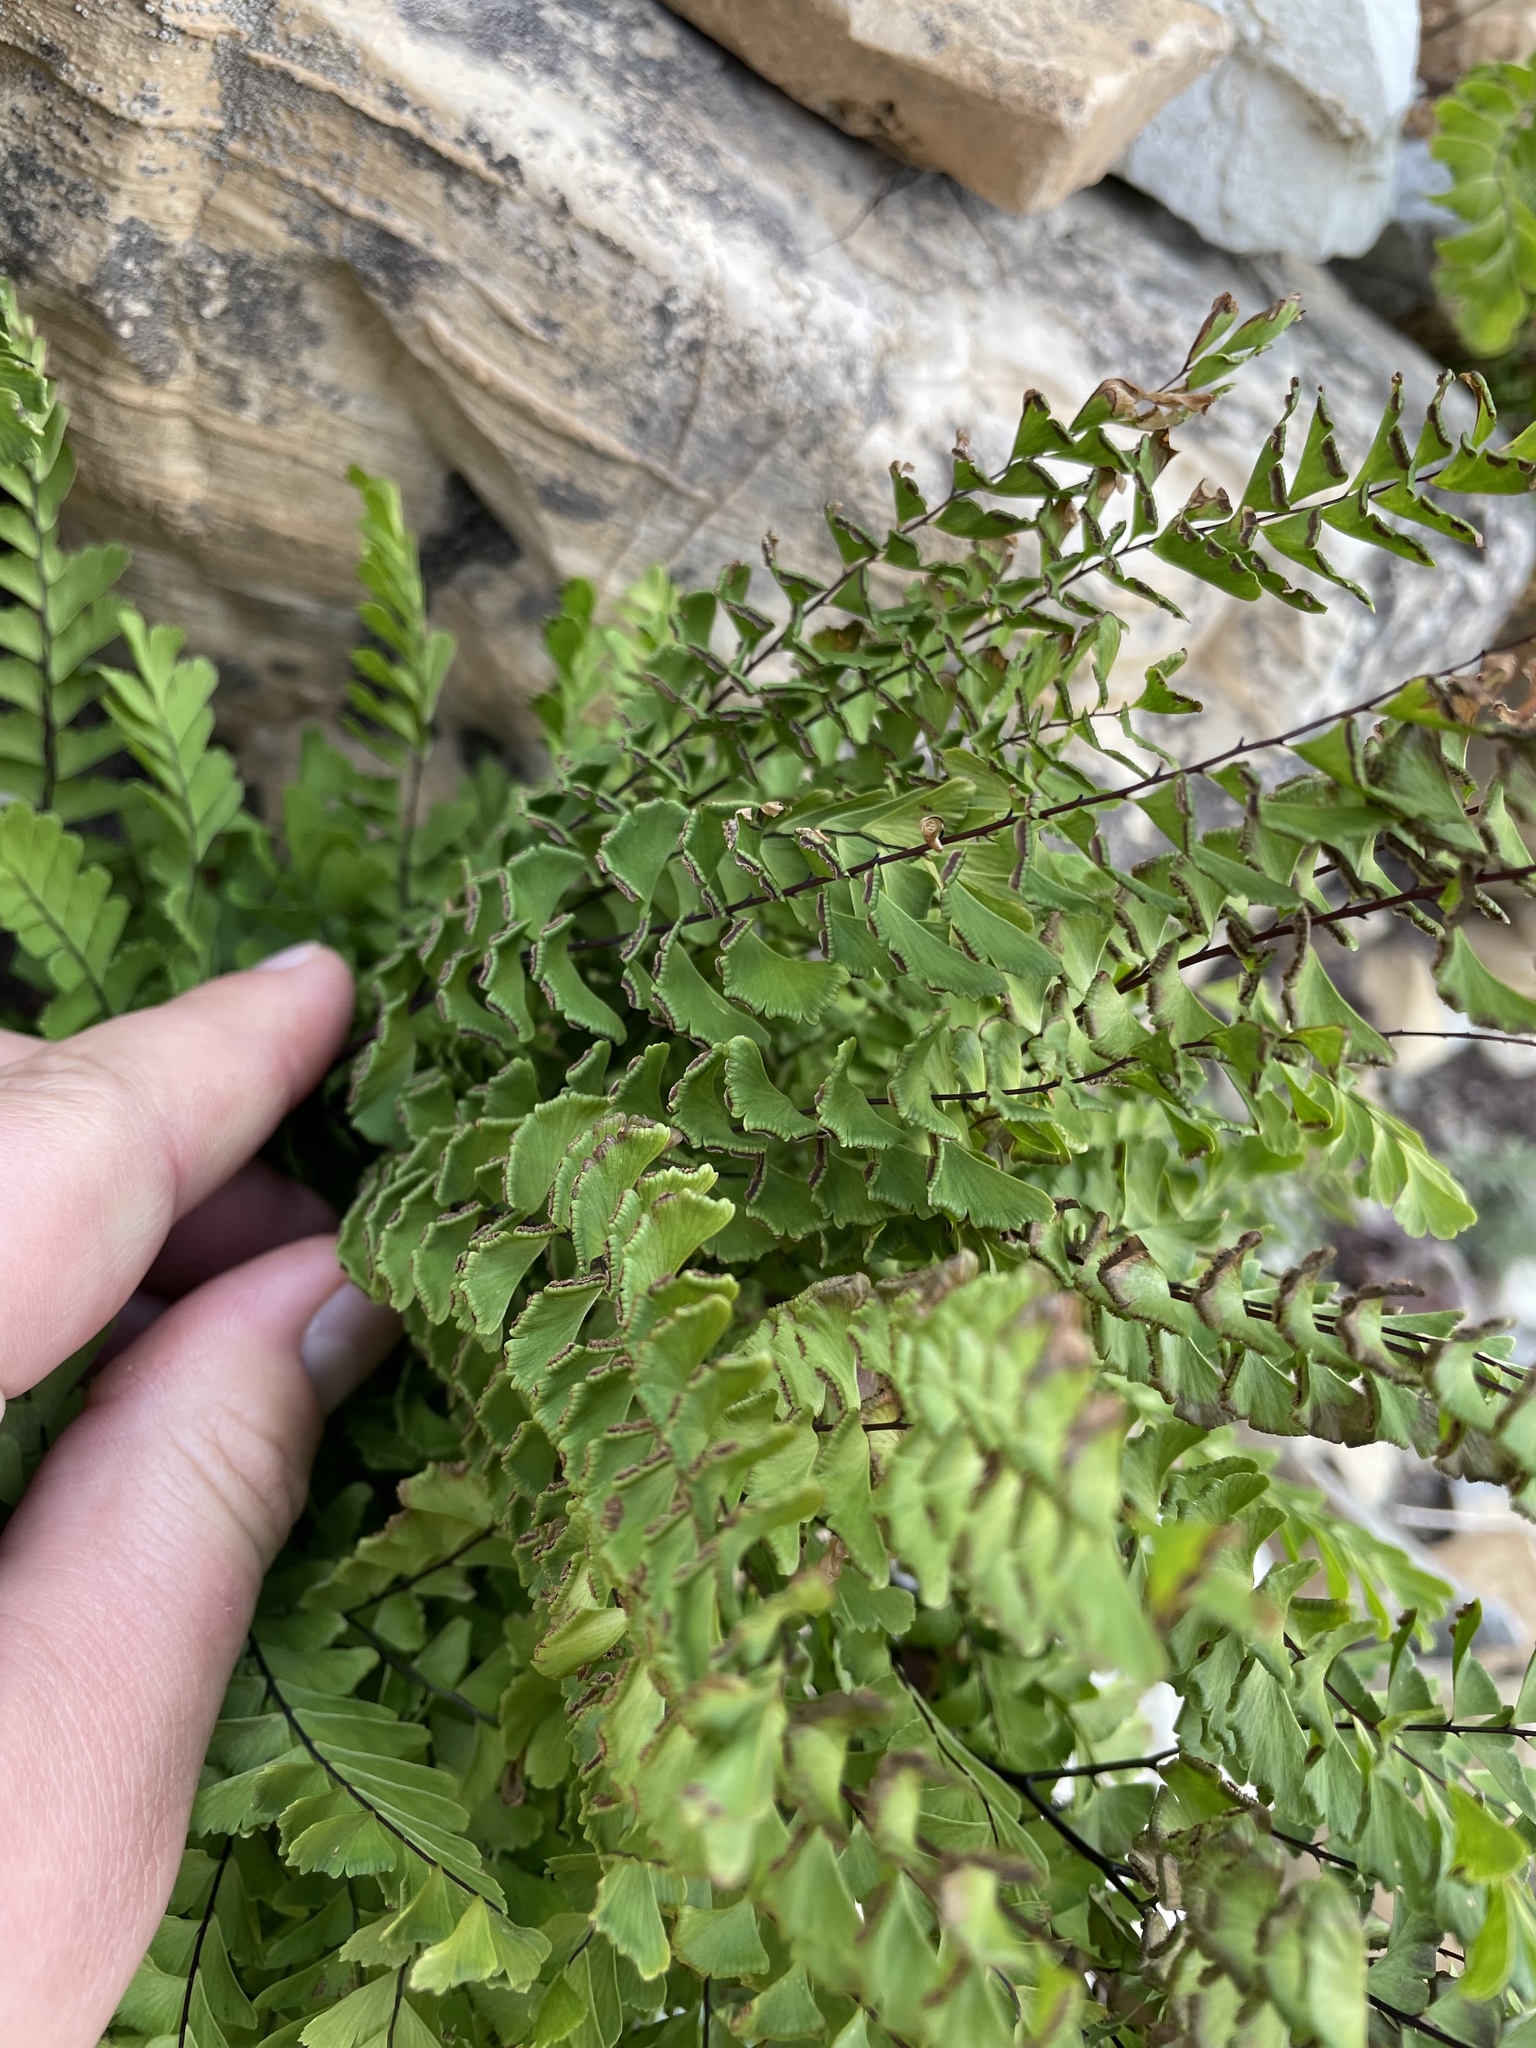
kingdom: Plantae
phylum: Tracheophyta
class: Polypodiopsida
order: Polypodiales
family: Pteridaceae
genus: Adiantum
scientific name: Adiantum aleuticum
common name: Aleutian maidenhair fern
